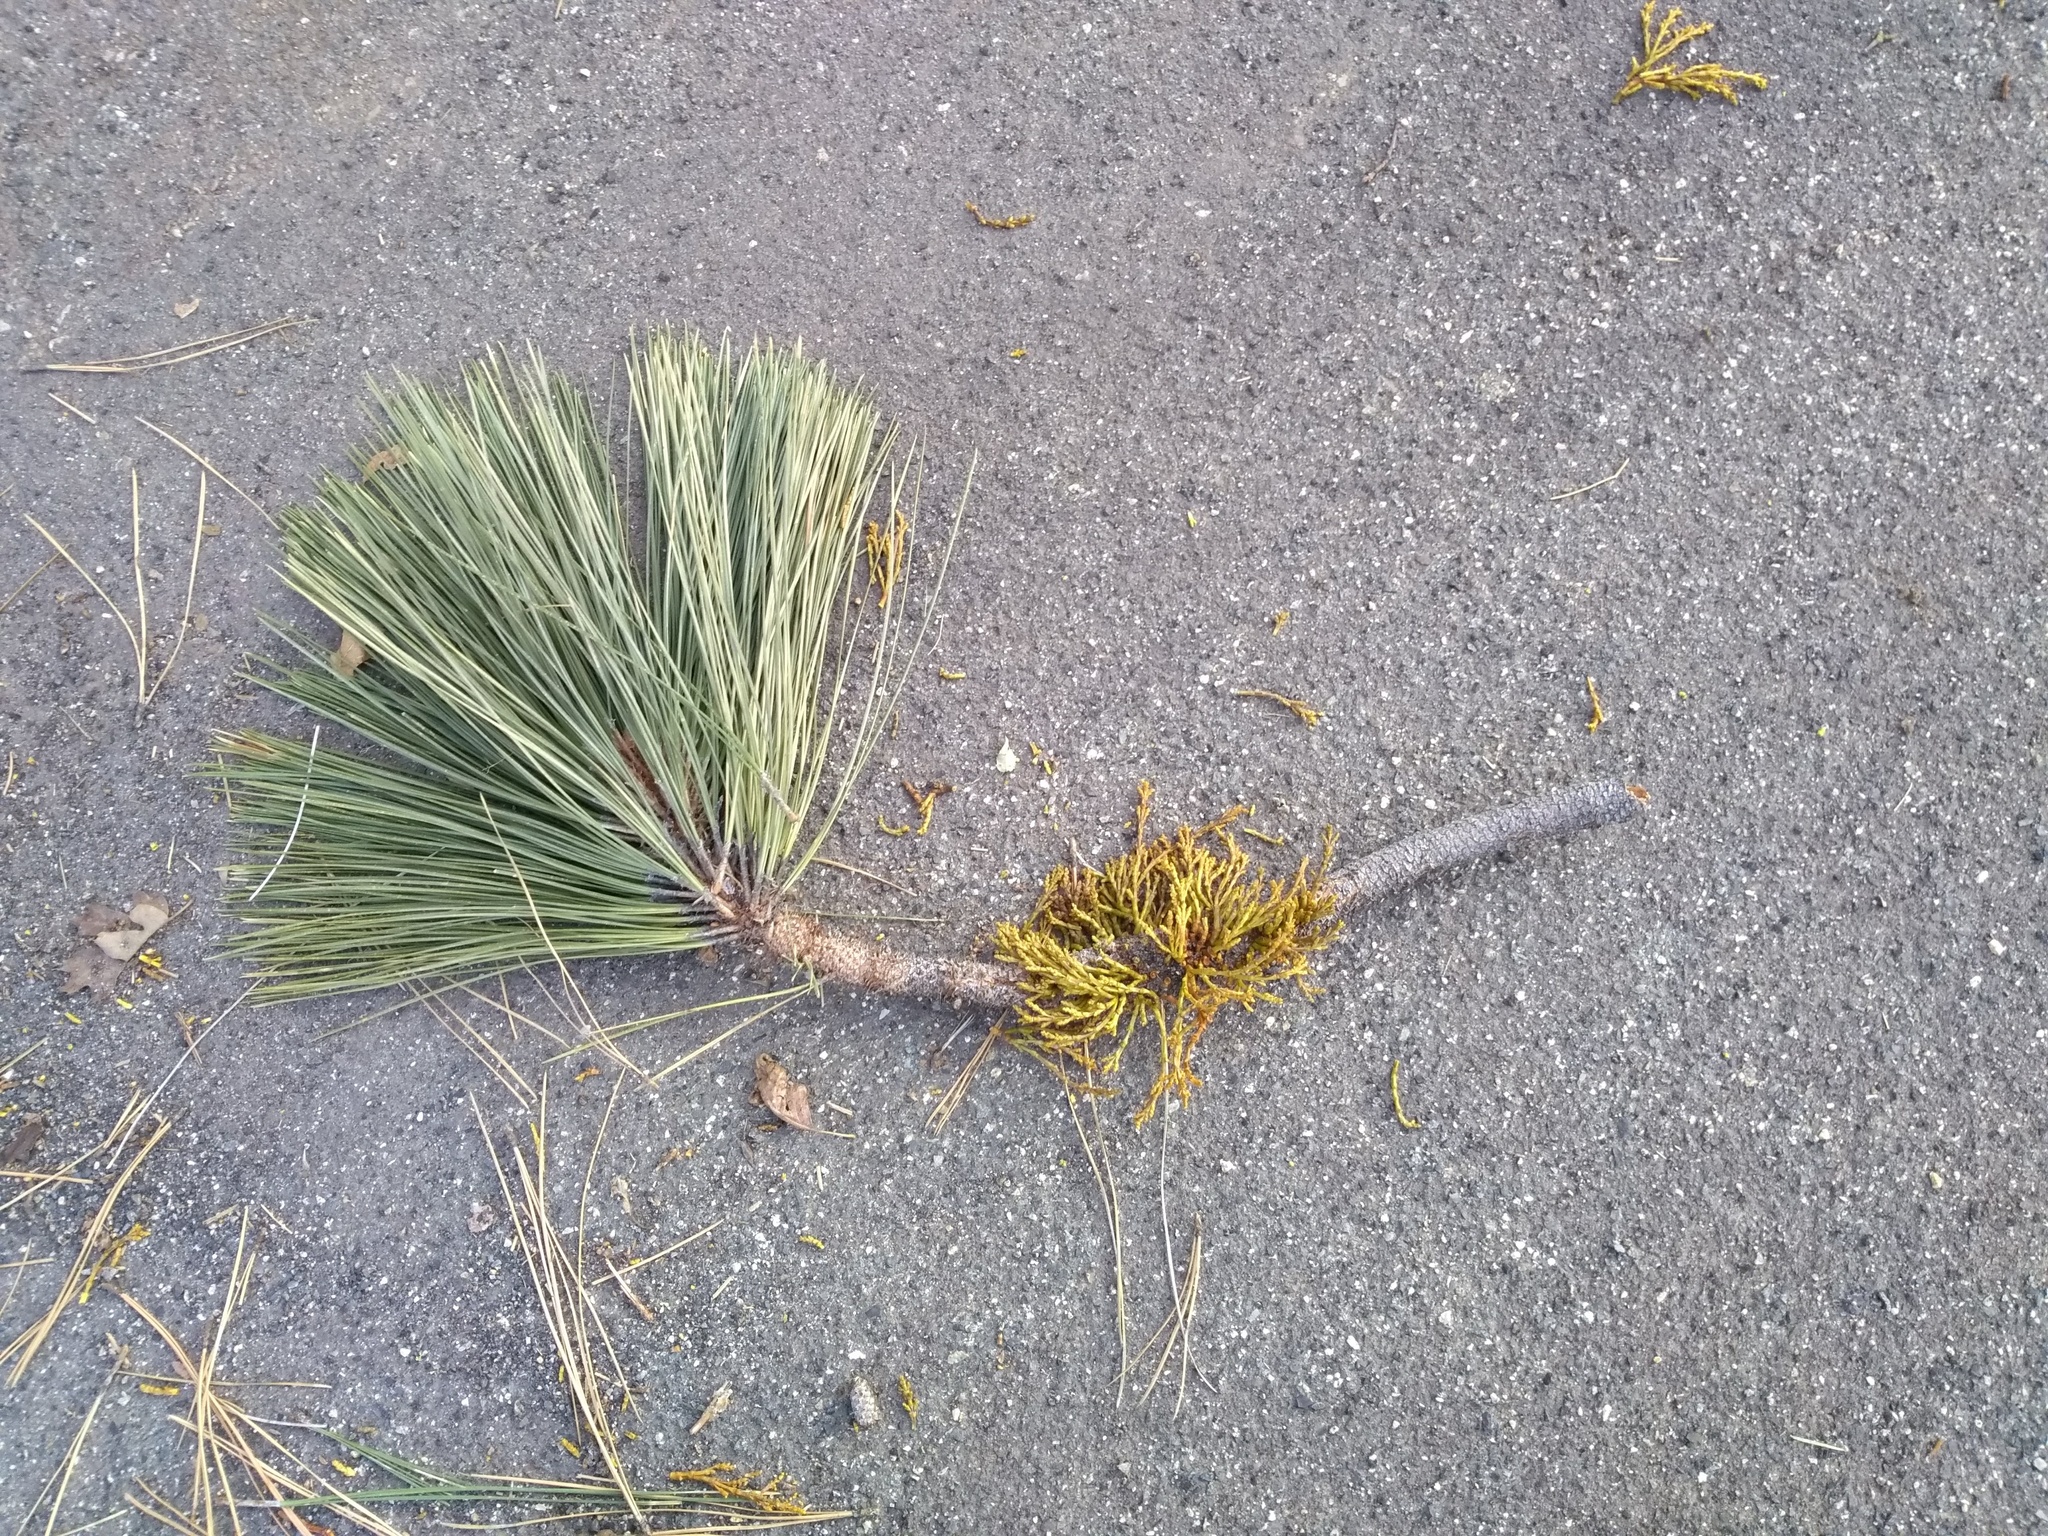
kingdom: Plantae
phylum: Tracheophyta
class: Magnoliopsida
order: Santalales
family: Viscaceae
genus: Arceuthobium
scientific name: Arceuthobium campylopodum
